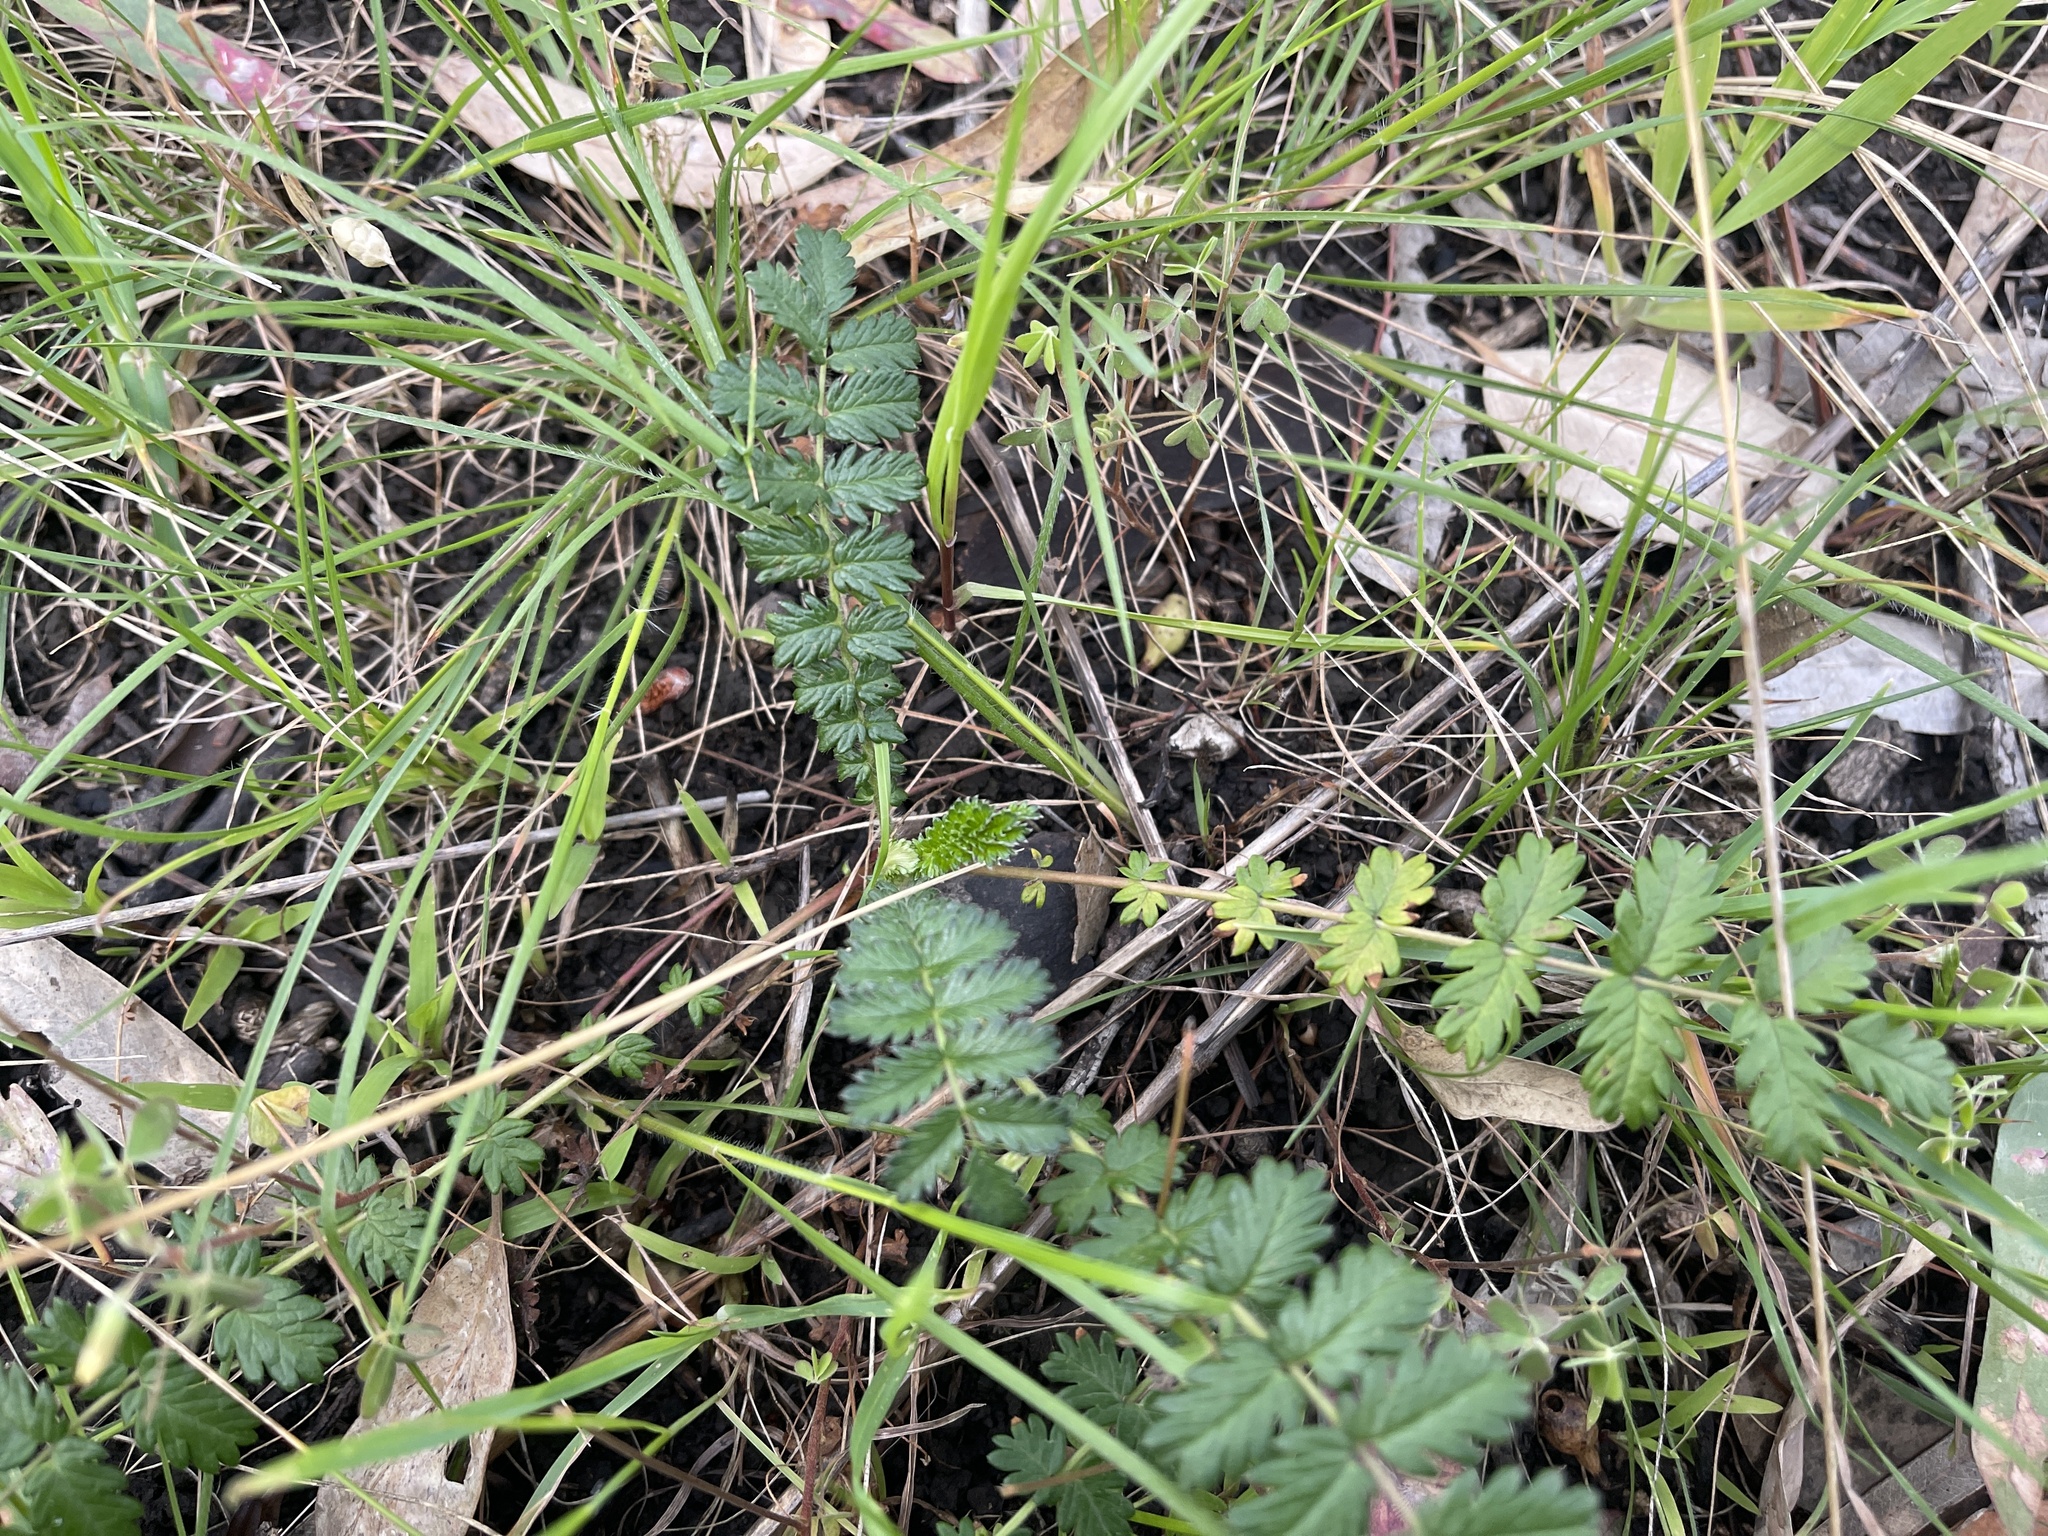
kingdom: Plantae
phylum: Tracheophyta
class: Magnoliopsida
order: Rosales
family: Rosaceae
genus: Acaena
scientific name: Acaena echinata
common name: Sheepbur
